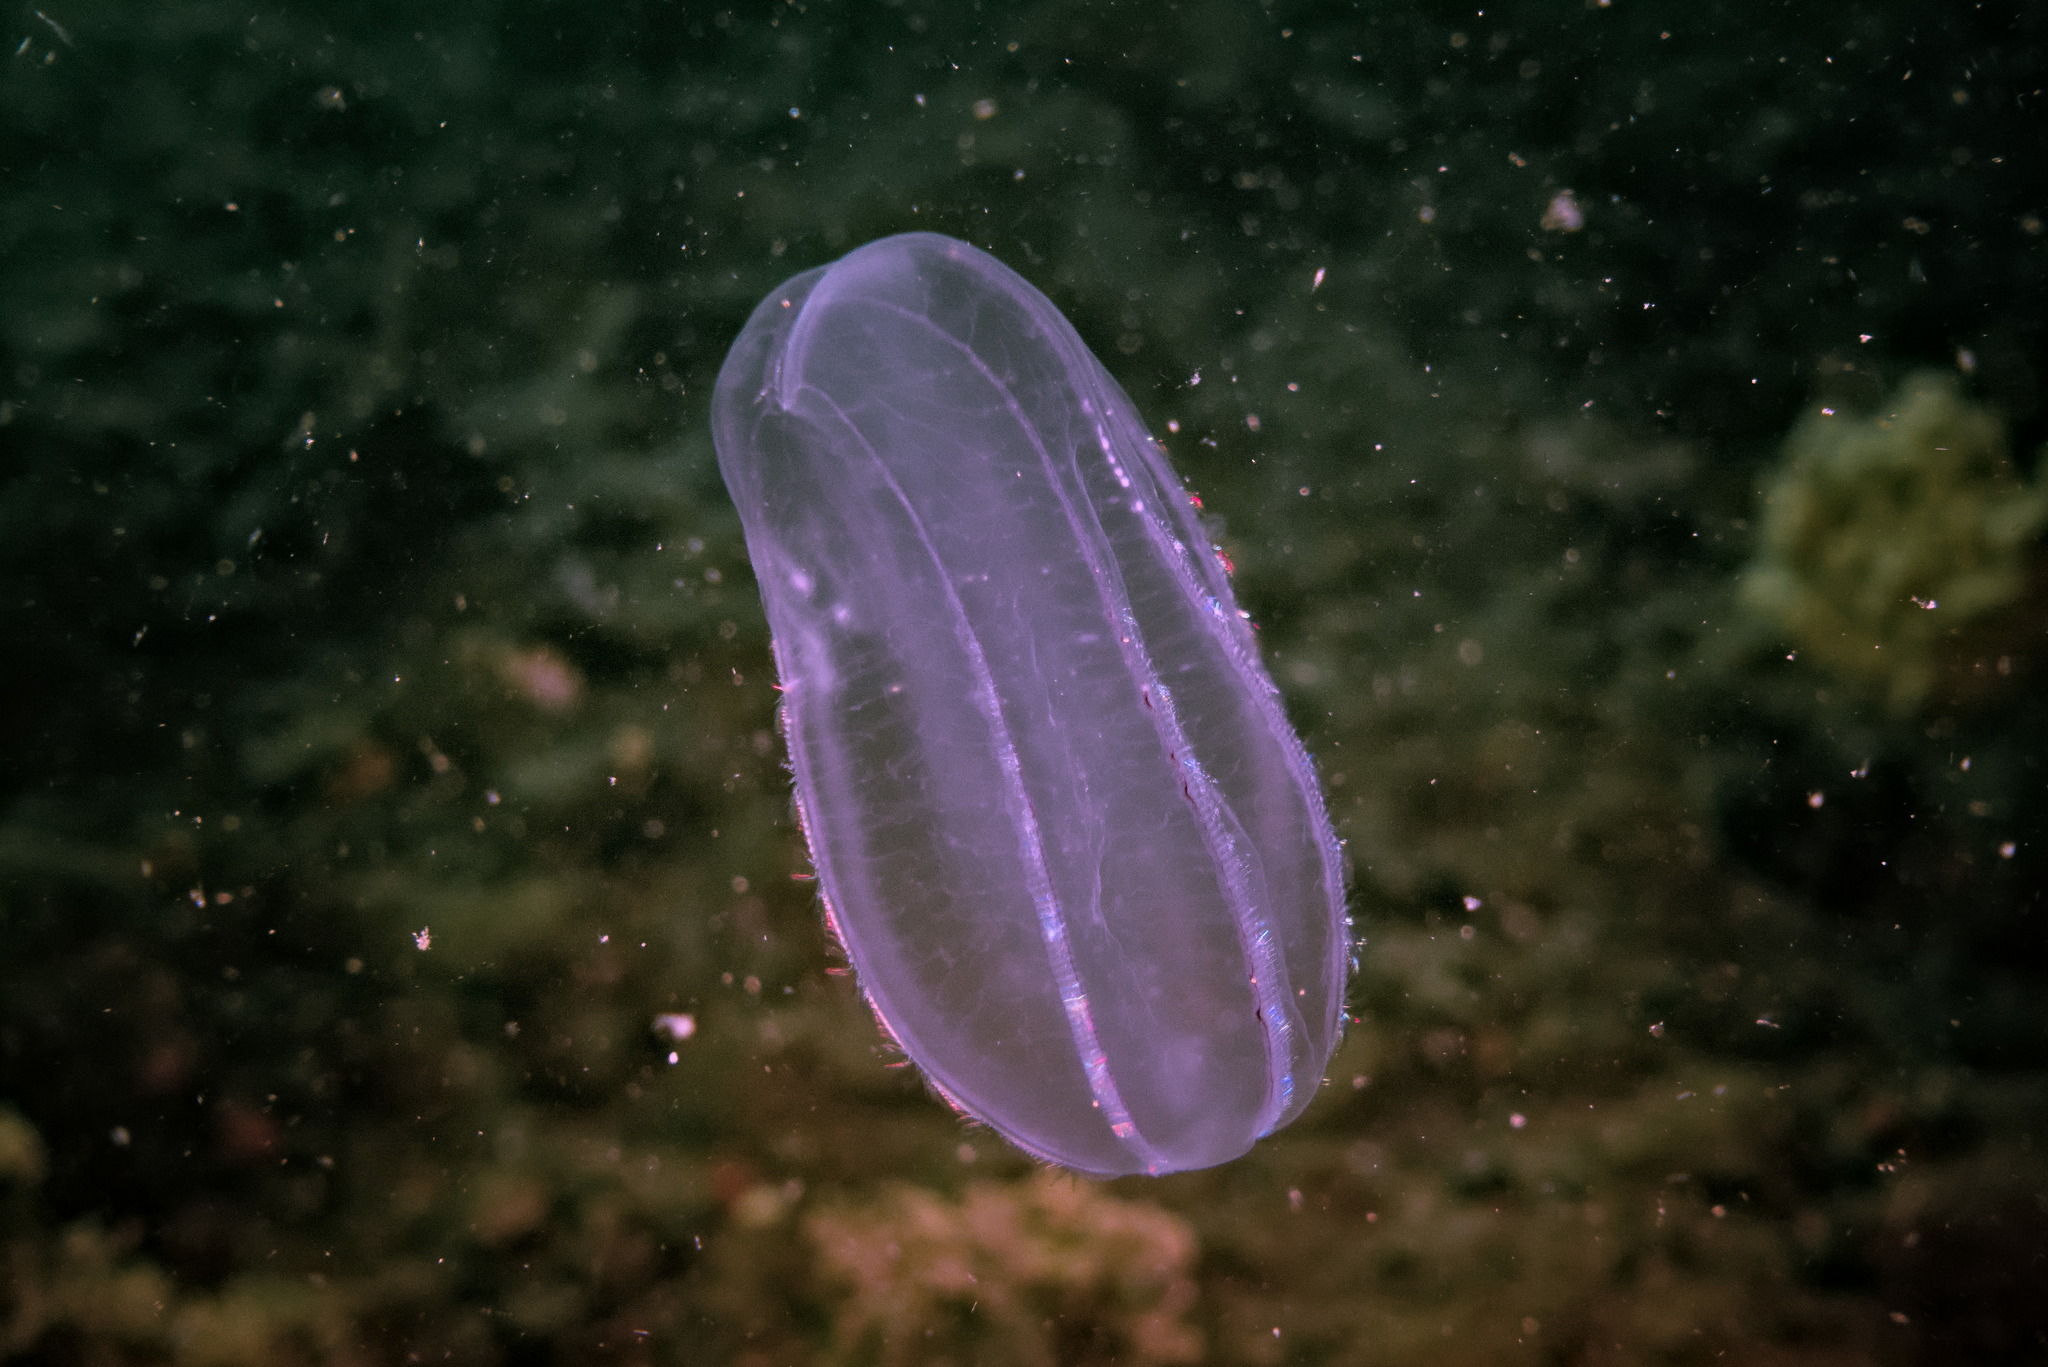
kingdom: Animalia
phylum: Ctenophora
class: Nuda
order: Beroida
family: Beroidae
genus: Beroe
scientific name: Beroe cucumis
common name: Beroe
